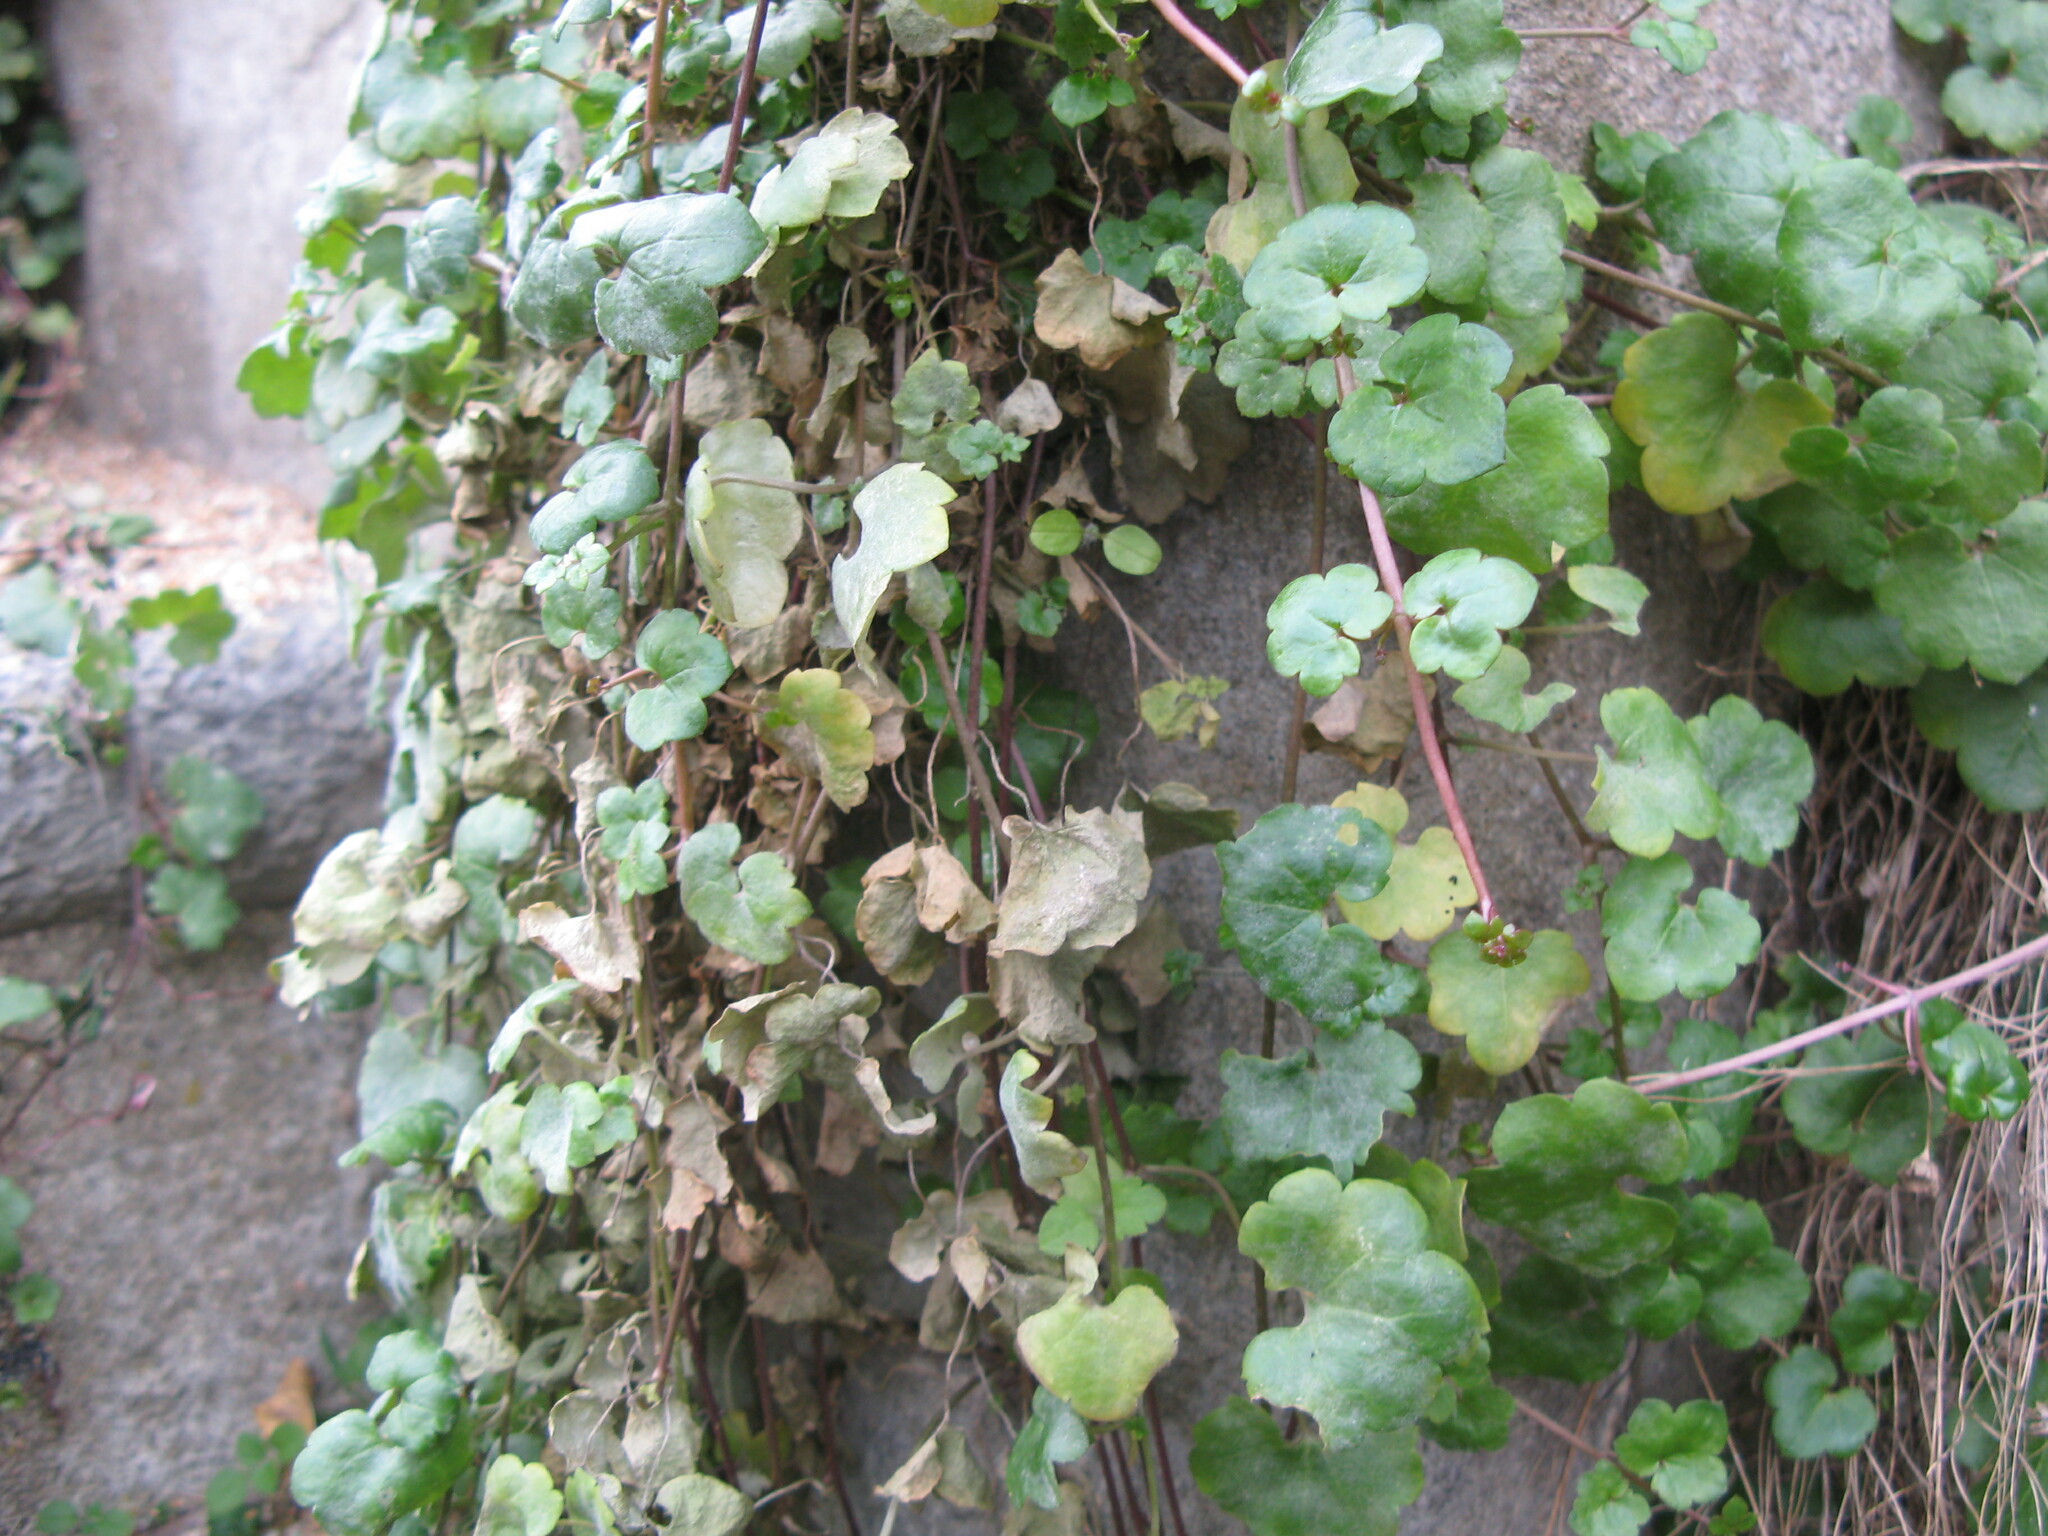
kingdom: Plantae
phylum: Tracheophyta
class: Magnoliopsida
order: Lamiales
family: Plantaginaceae
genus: Cymbalaria
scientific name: Cymbalaria muralis
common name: Ivy-leaved toadflax
